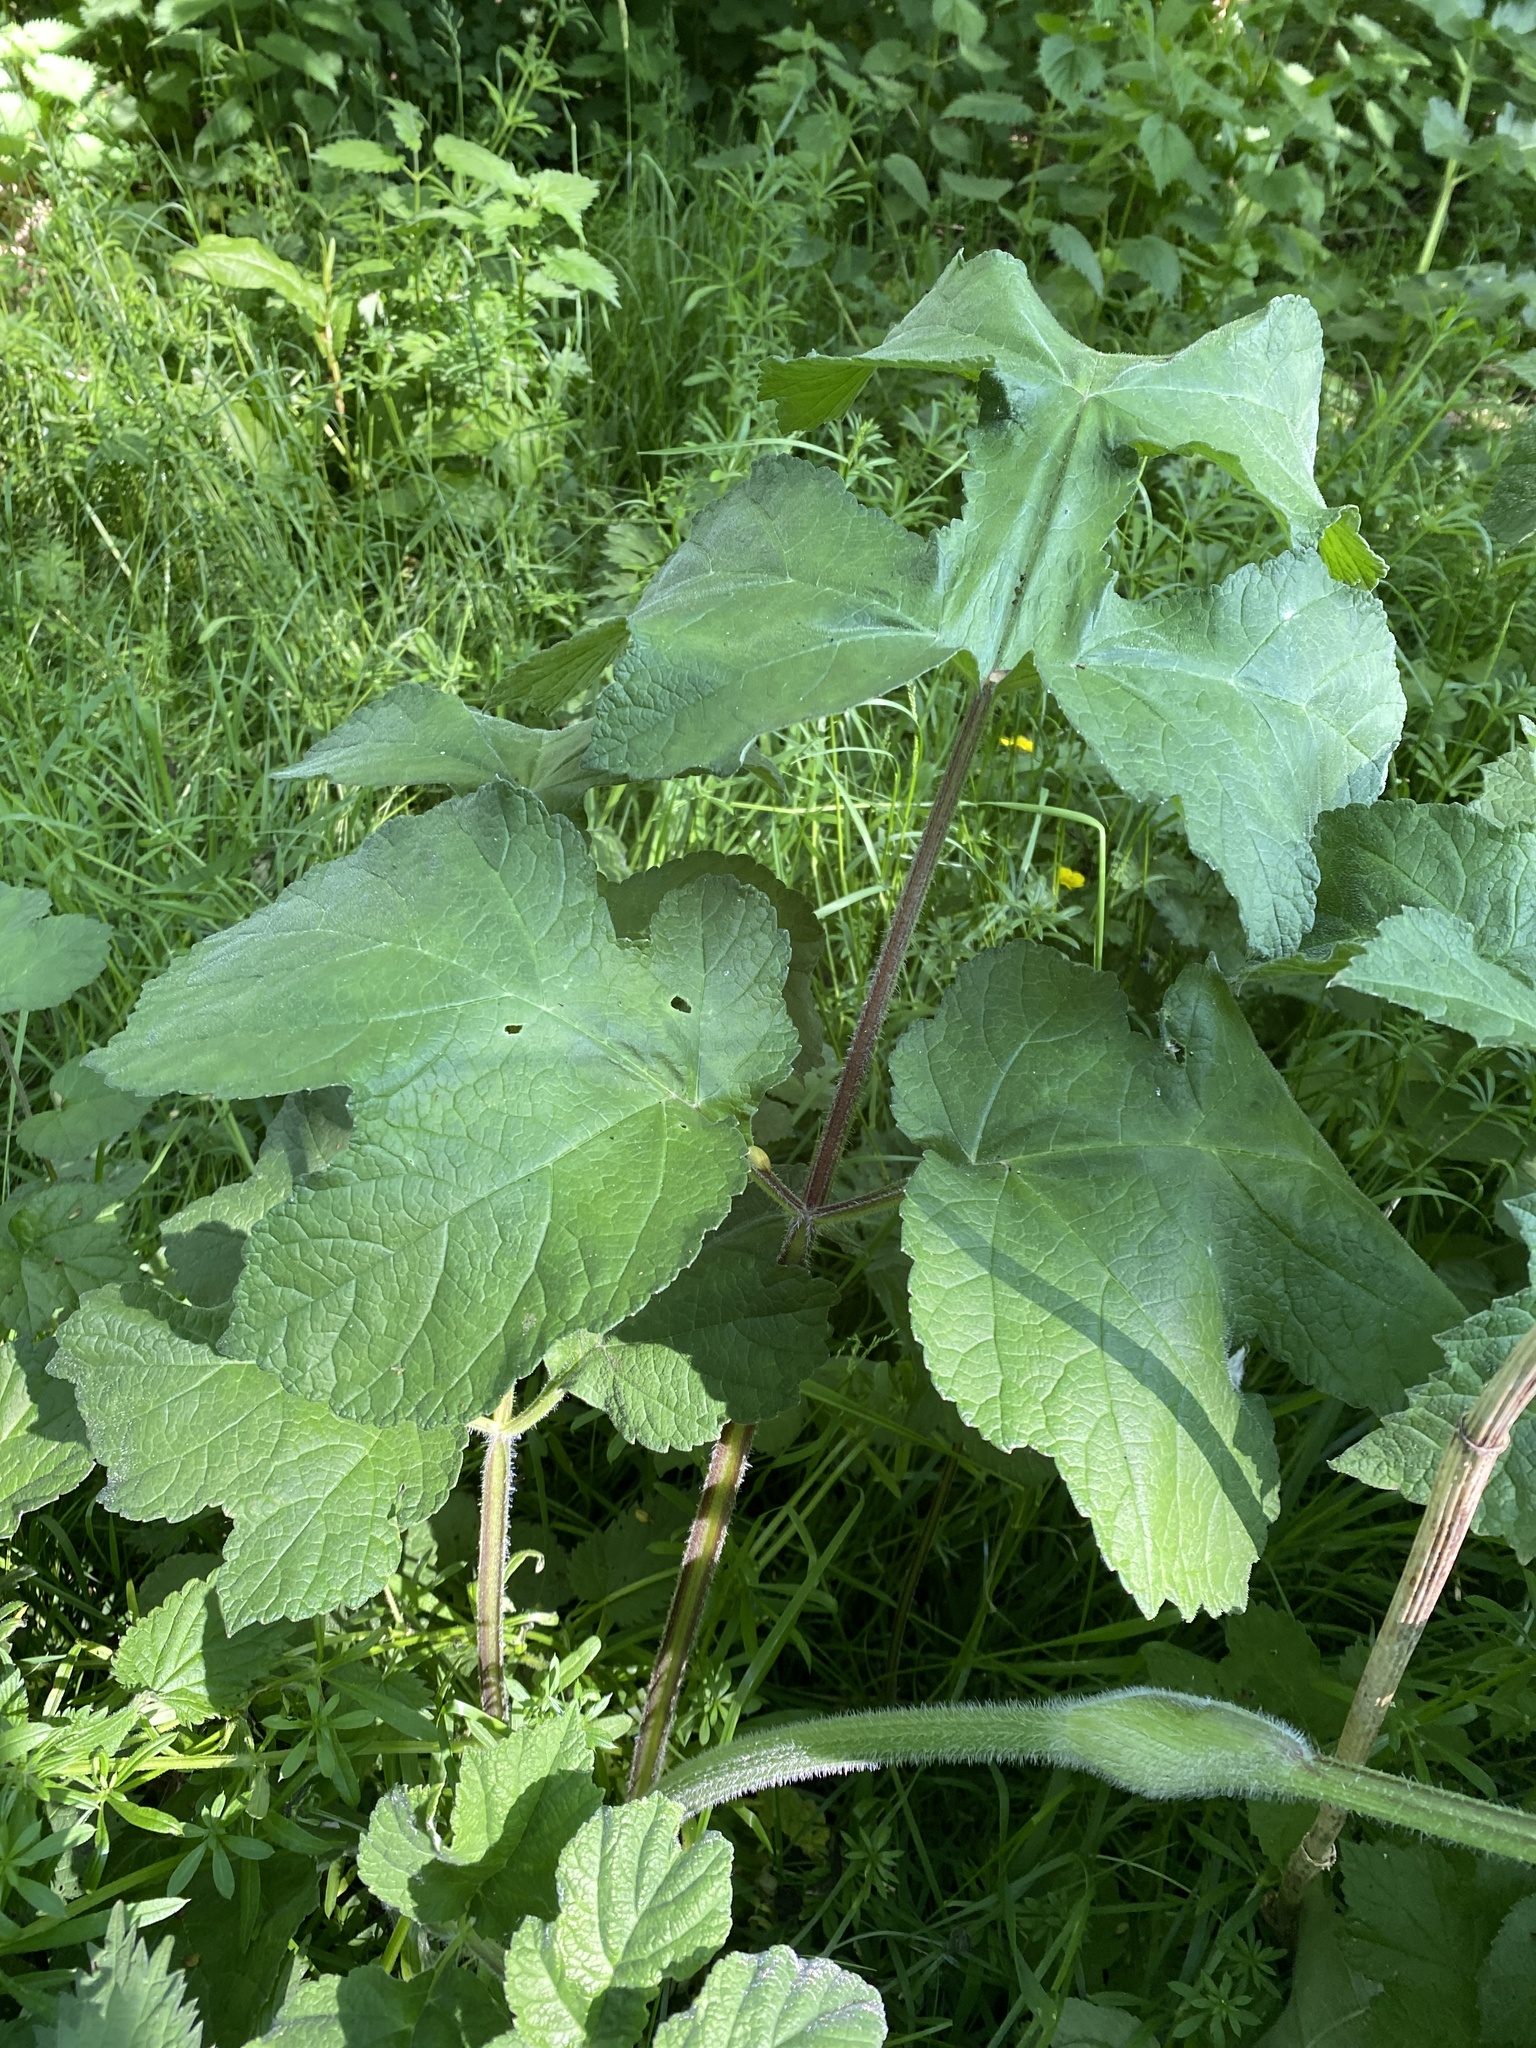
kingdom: Plantae
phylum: Tracheophyta
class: Magnoliopsida
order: Apiales
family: Apiaceae
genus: Heracleum
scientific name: Heracleum sphondylium
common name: Hogweed
